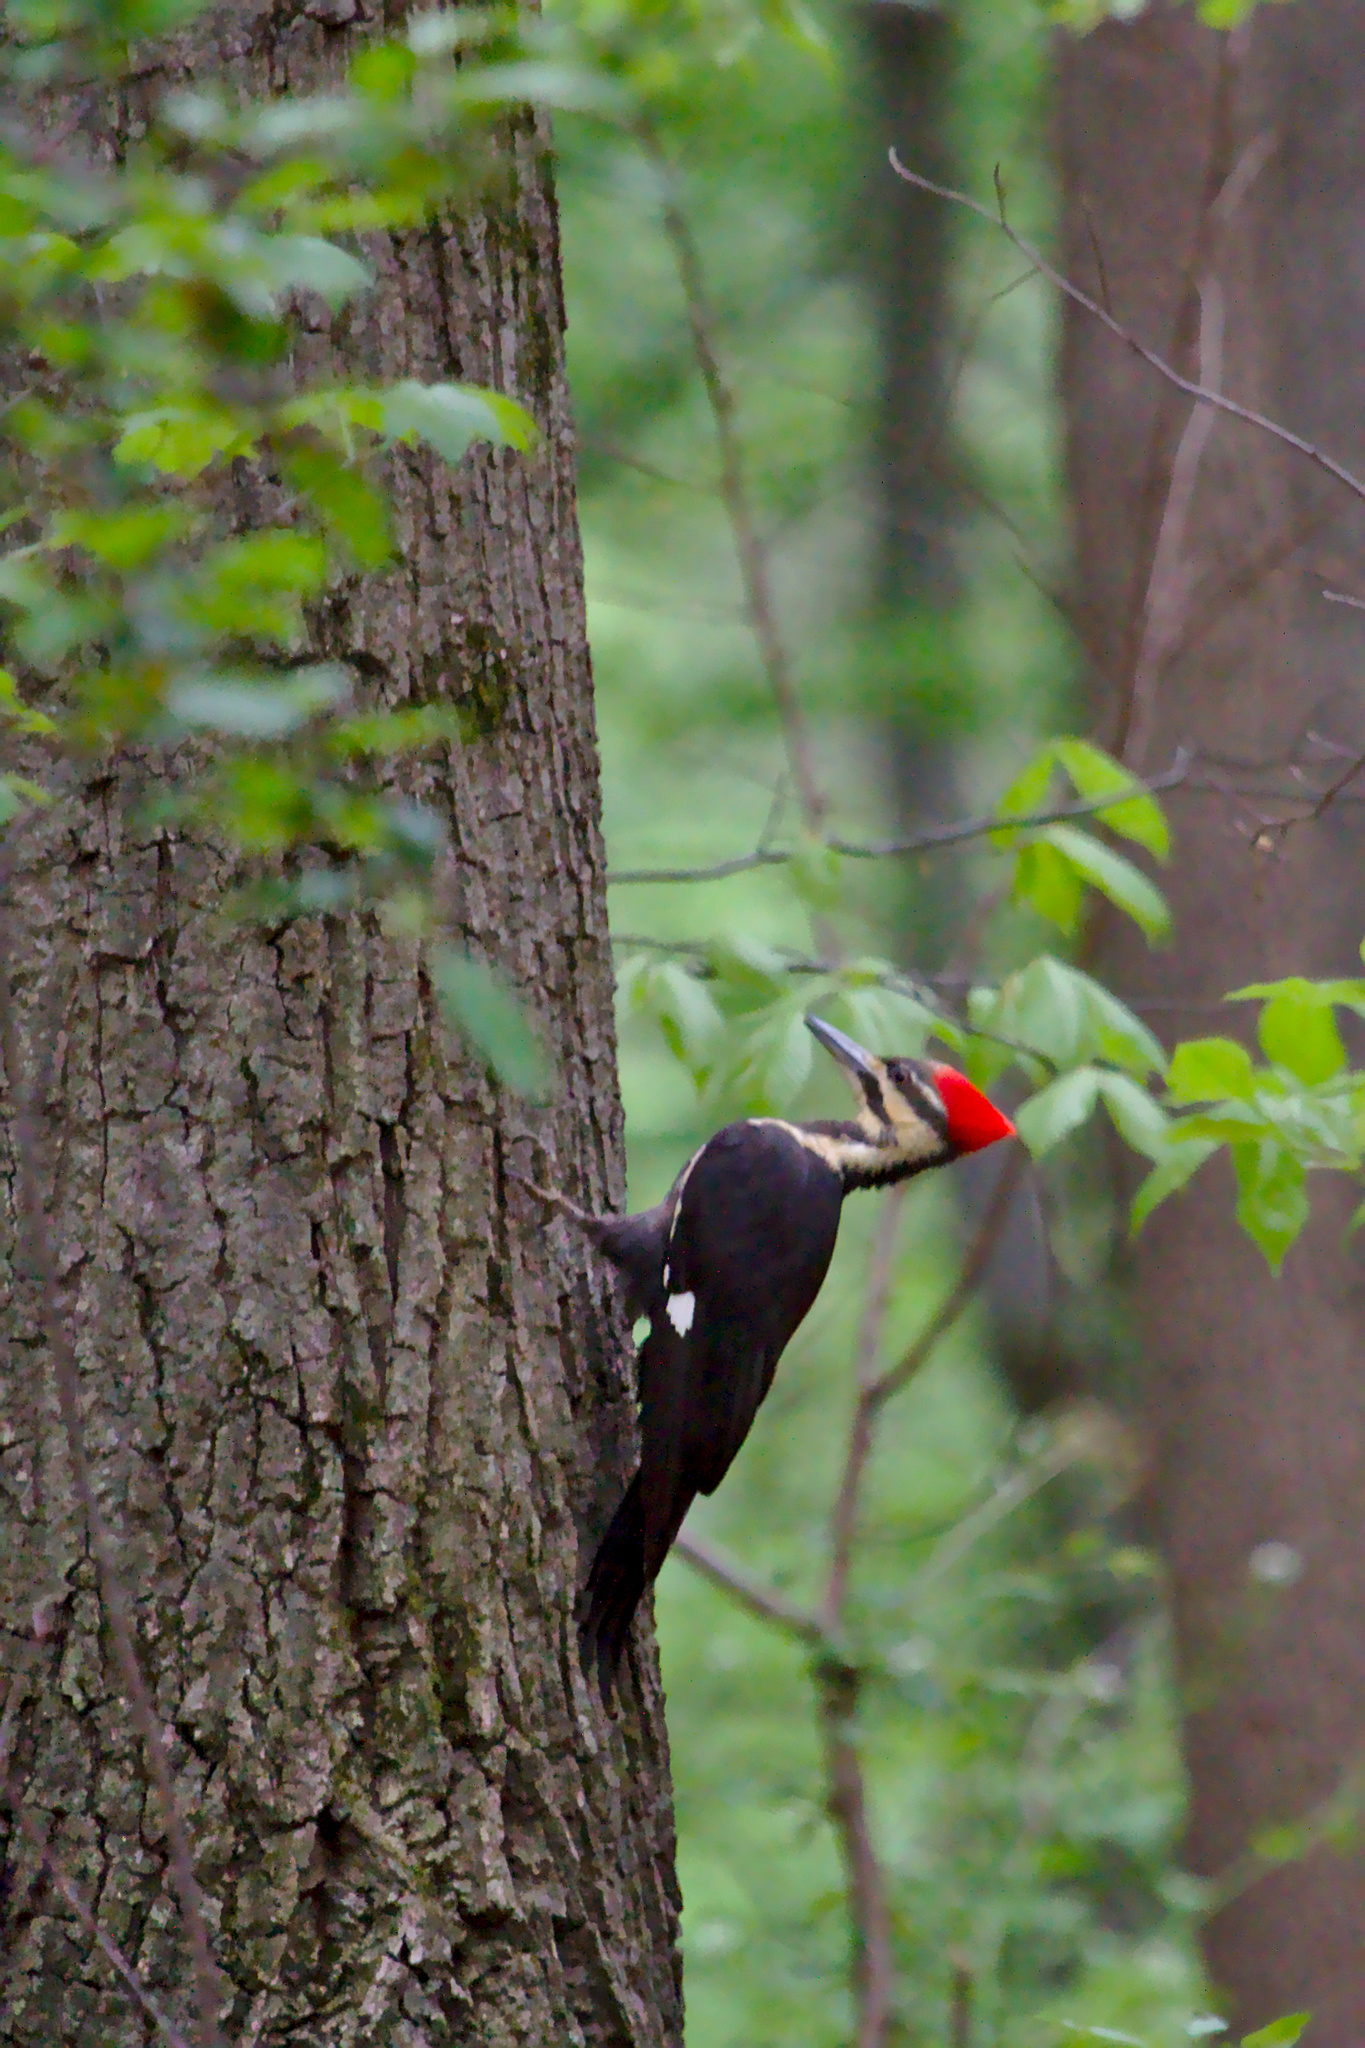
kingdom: Animalia
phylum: Chordata
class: Aves
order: Piciformes
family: Picidae
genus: Dryocopus
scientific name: Dryocopus pileatus
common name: Pileated woodpecker
